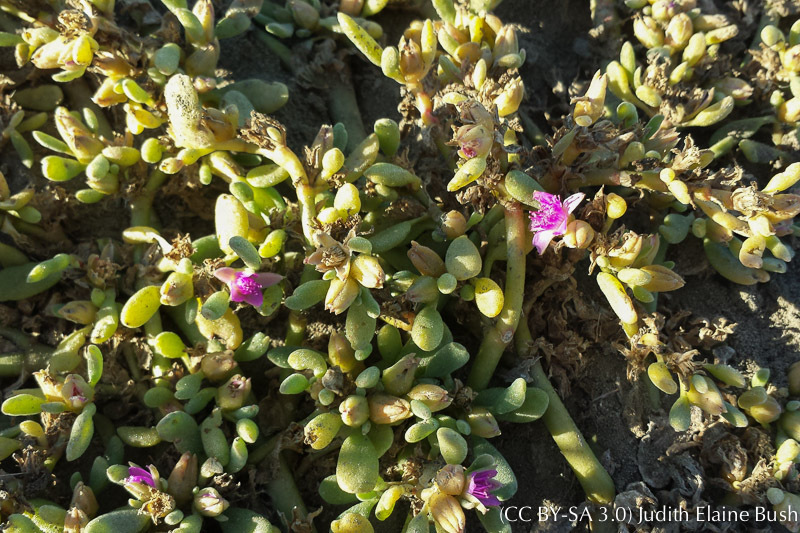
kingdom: Plantae
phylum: Tracheophyta
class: Magnoliopsida
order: Caryophyllales
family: Aizoaceae
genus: Sesuvium
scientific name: Sesuvium revolutifolium
